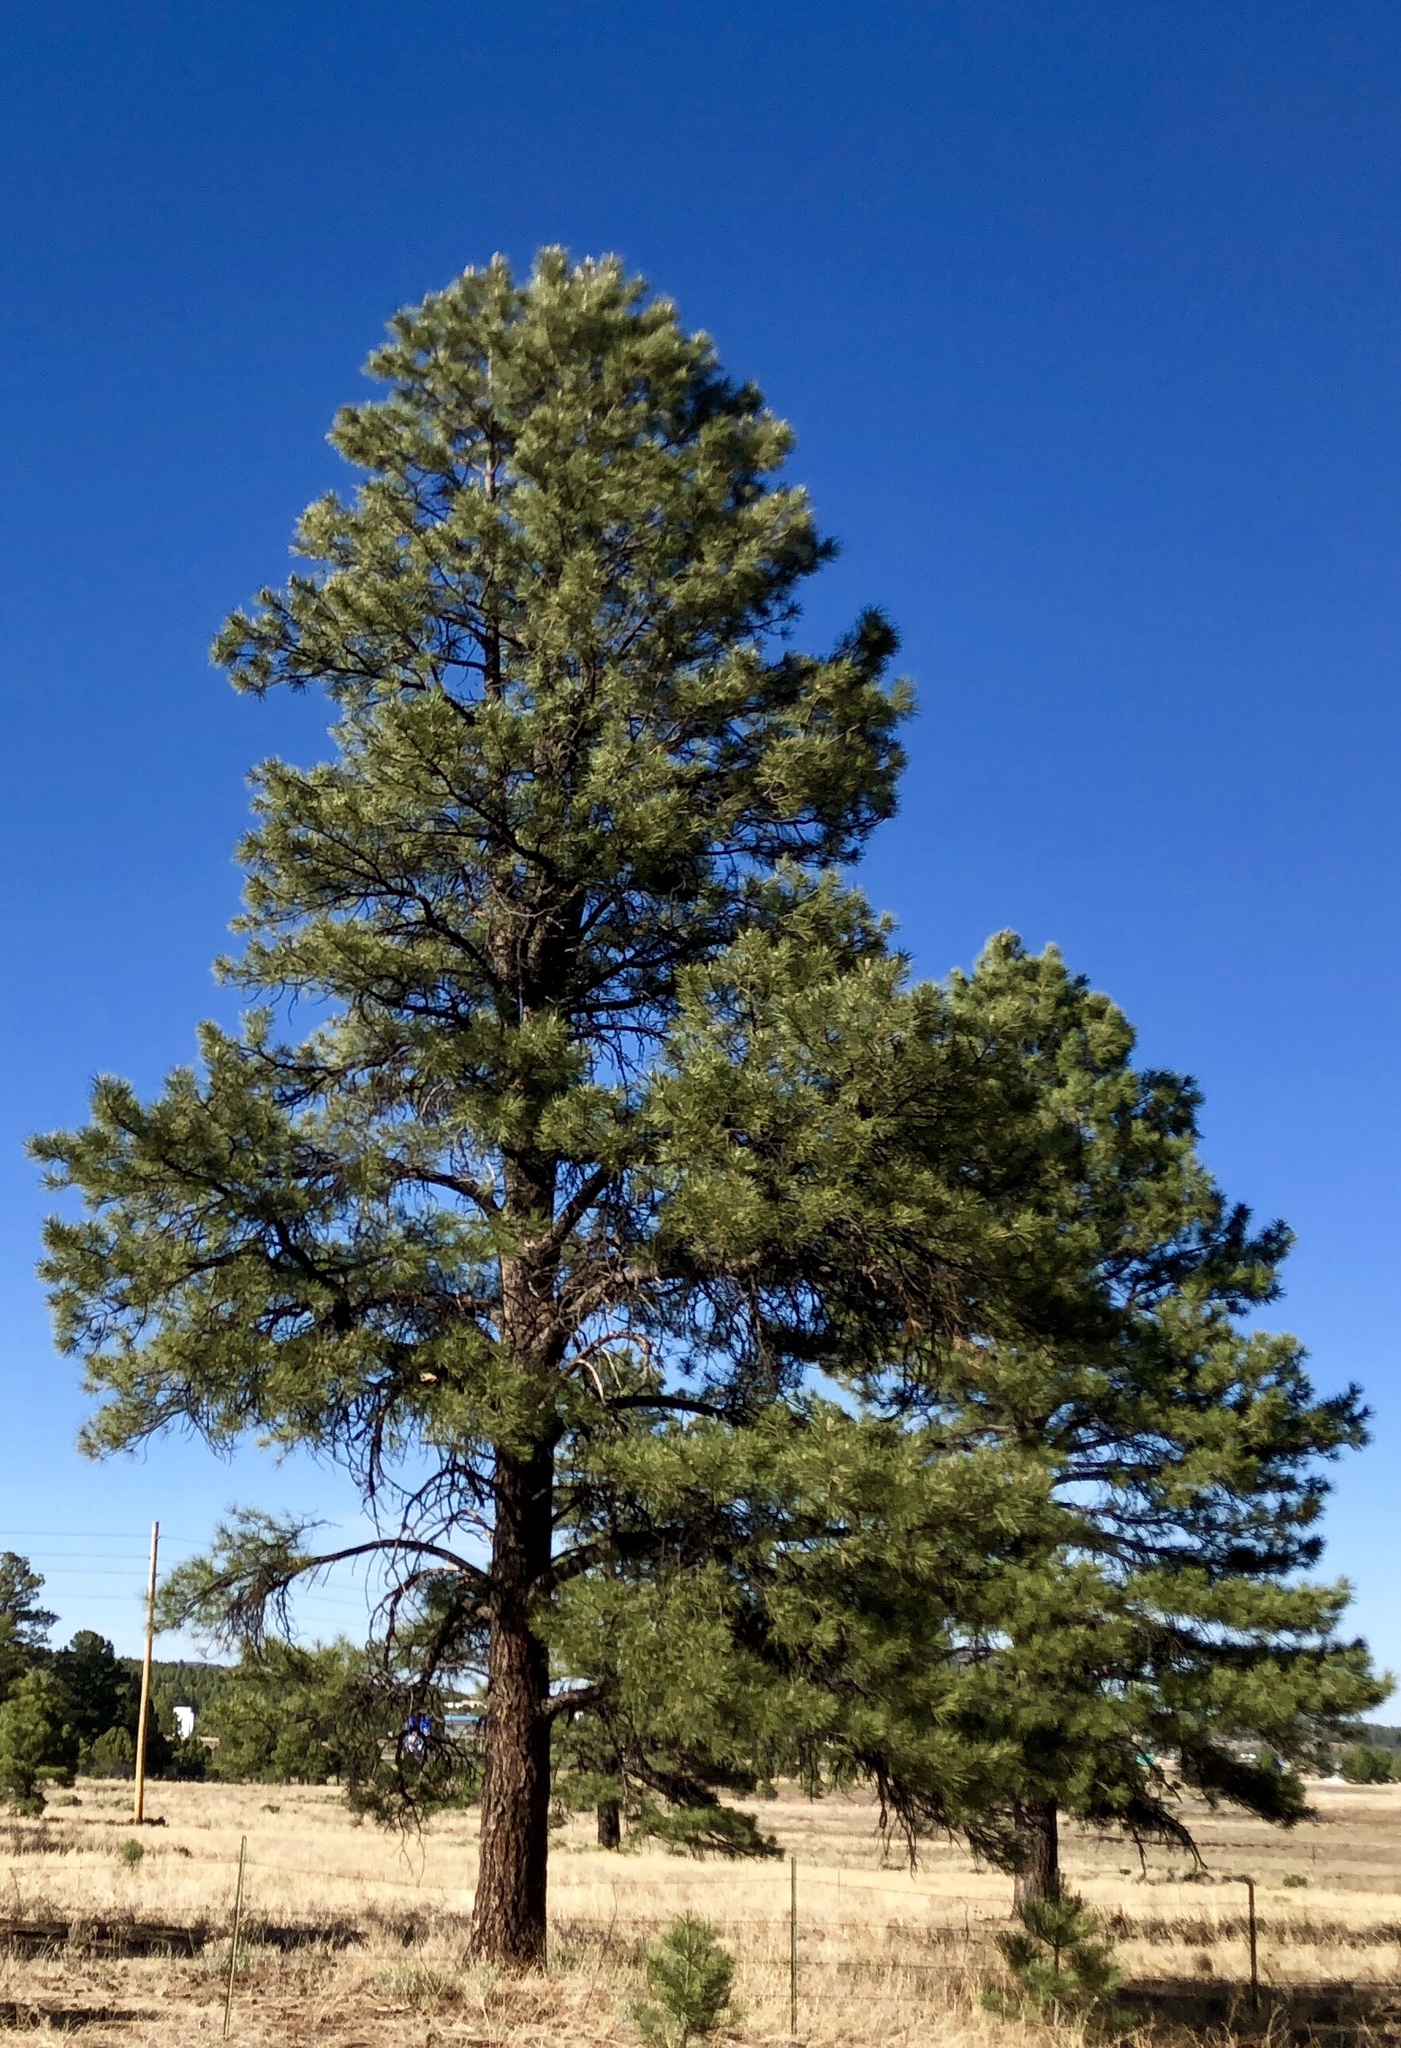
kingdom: Plantae
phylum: Tracheophyta
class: Pinopsida
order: Pinales
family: Pinaceae
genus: Pinus
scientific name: Pinus ponderosa
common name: Western yellow-pine
